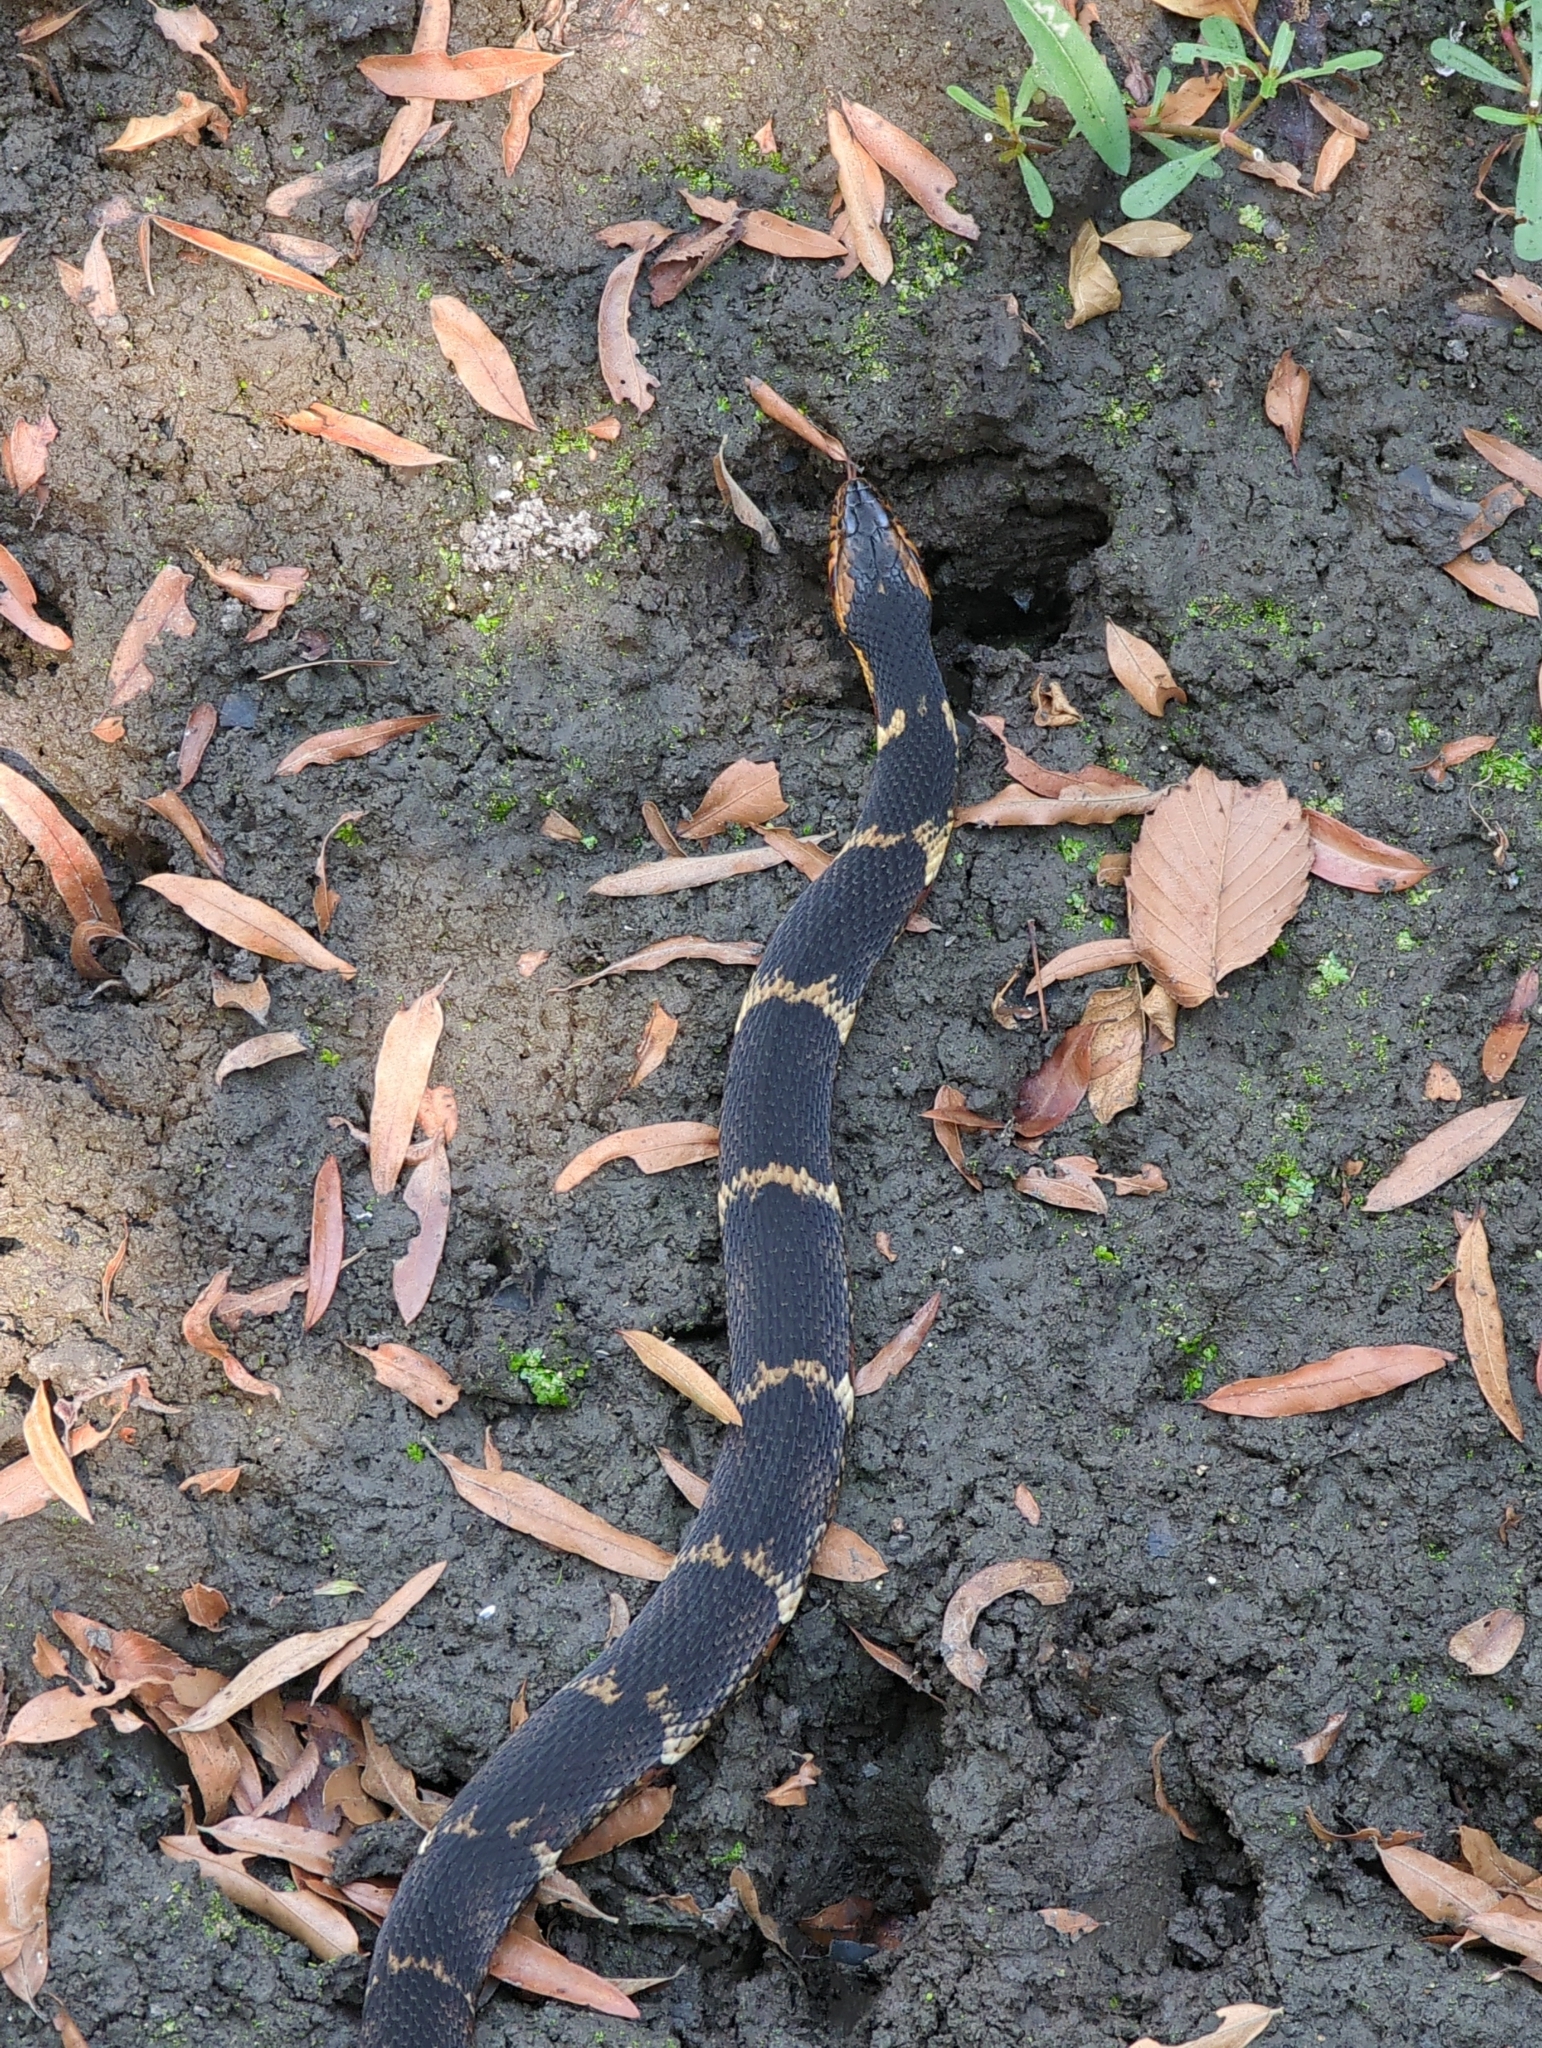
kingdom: Animalia
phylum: Chordata
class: Squamata
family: Colubridae
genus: Nerodia
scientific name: Nerodia fasciata
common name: Southern water snake
